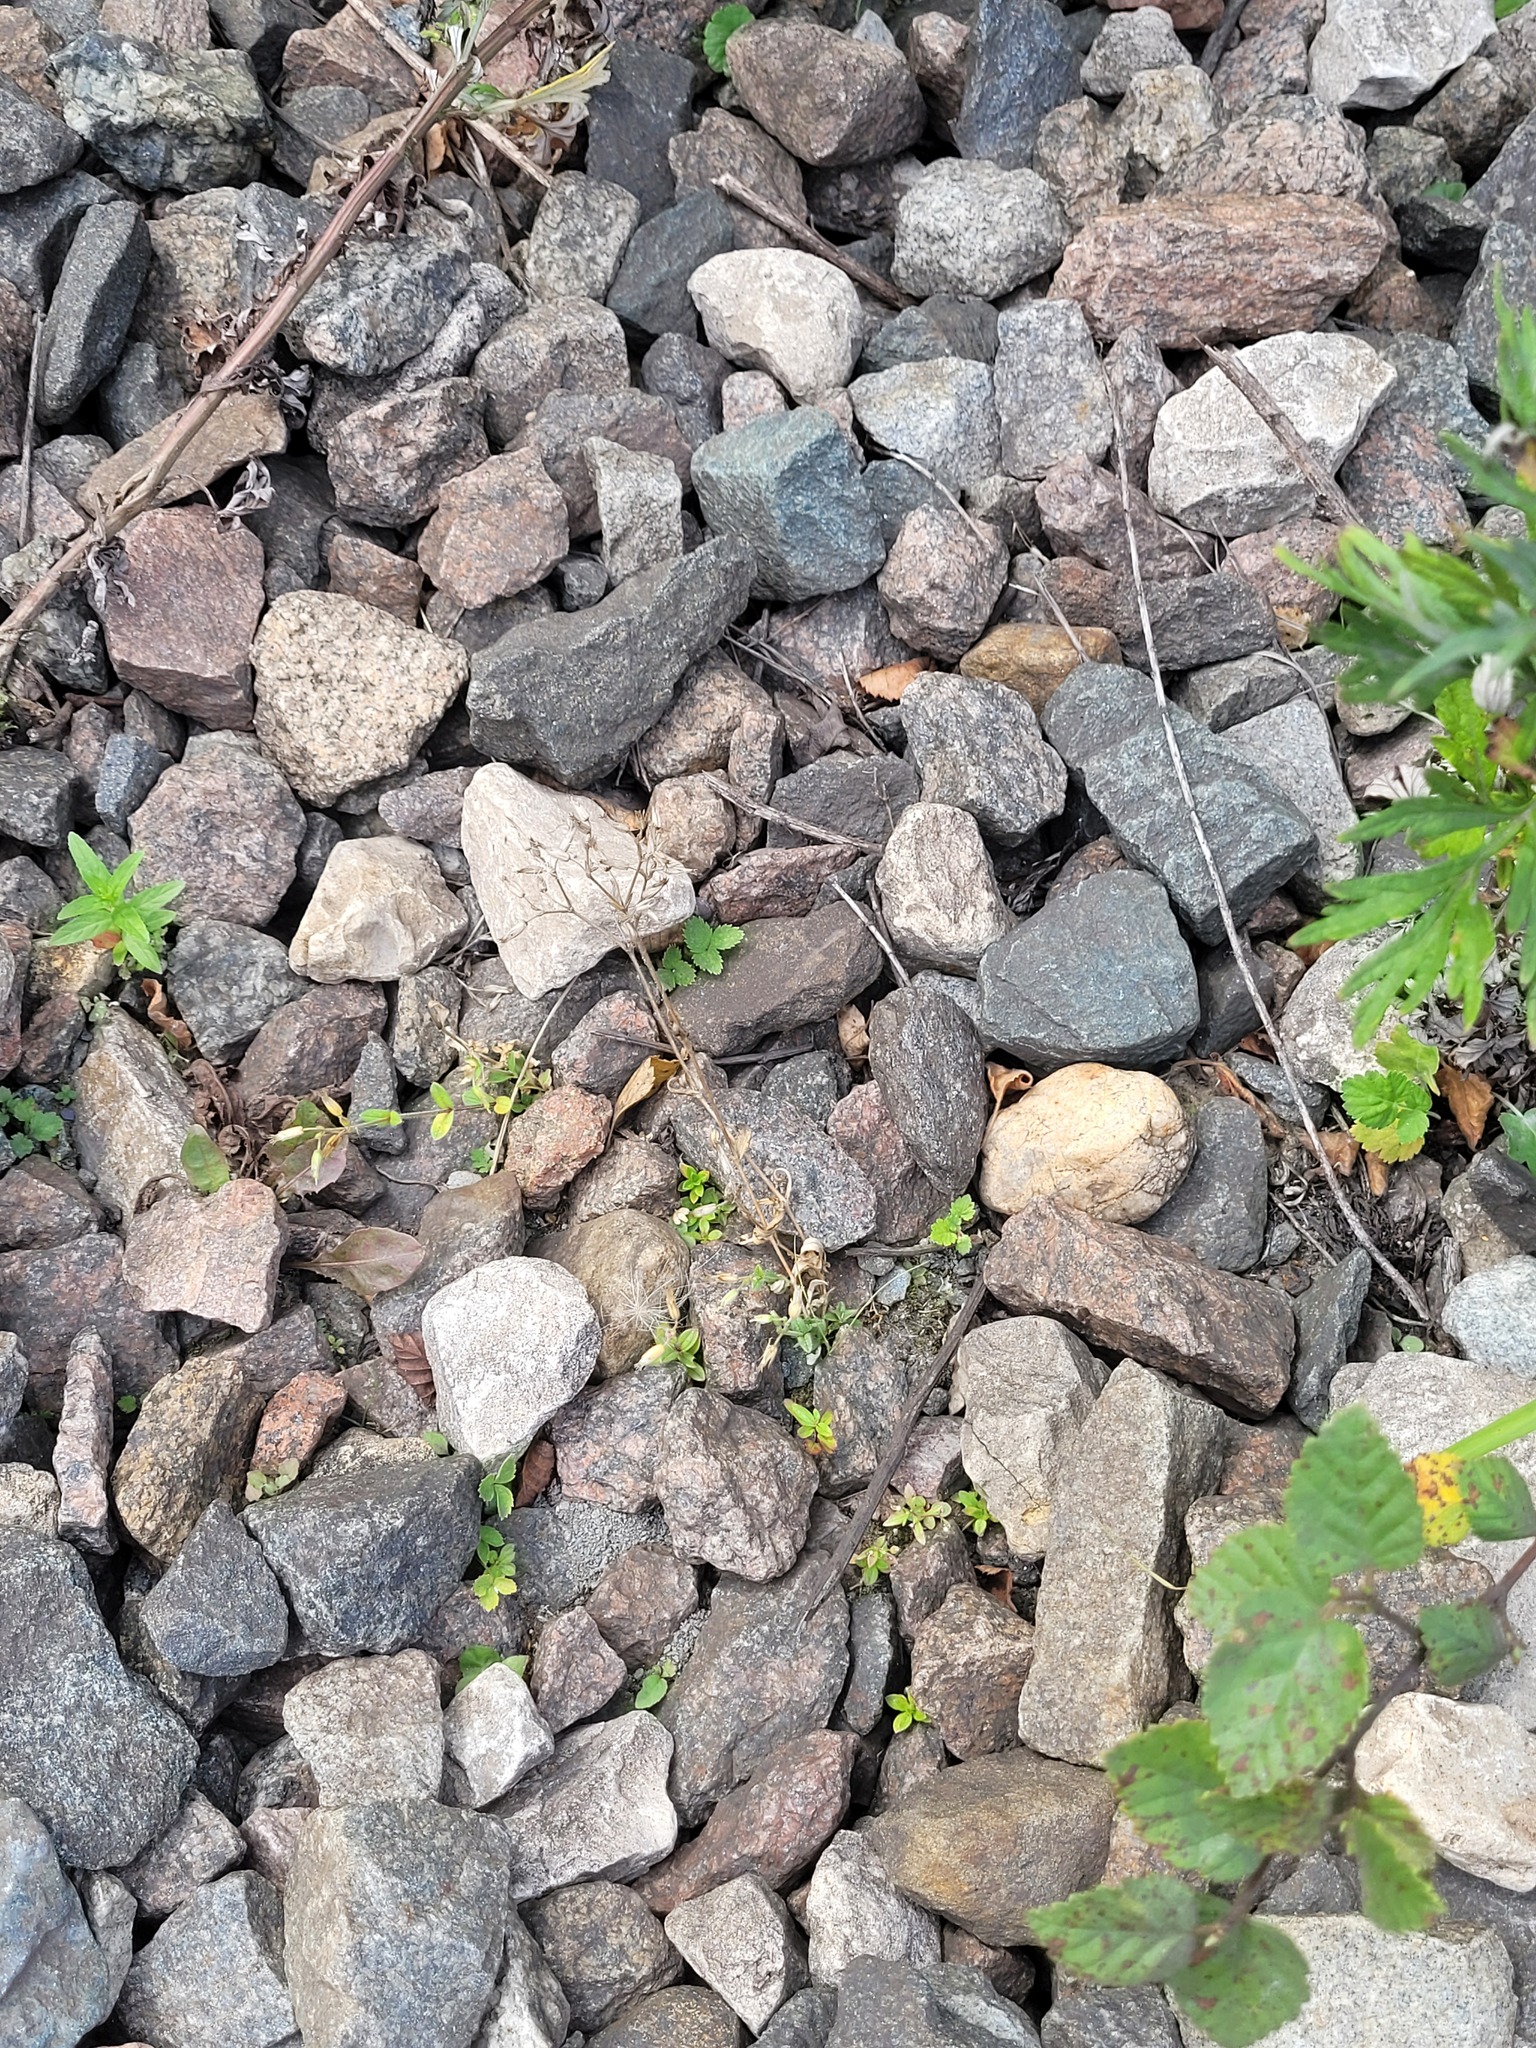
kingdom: Plantae
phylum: Tracheophyta
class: Magnoliopsida
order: Caryophyllales
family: Caryophyllaceae
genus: Cerastium
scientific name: Cerastium holosteoides
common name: Big chickweed
